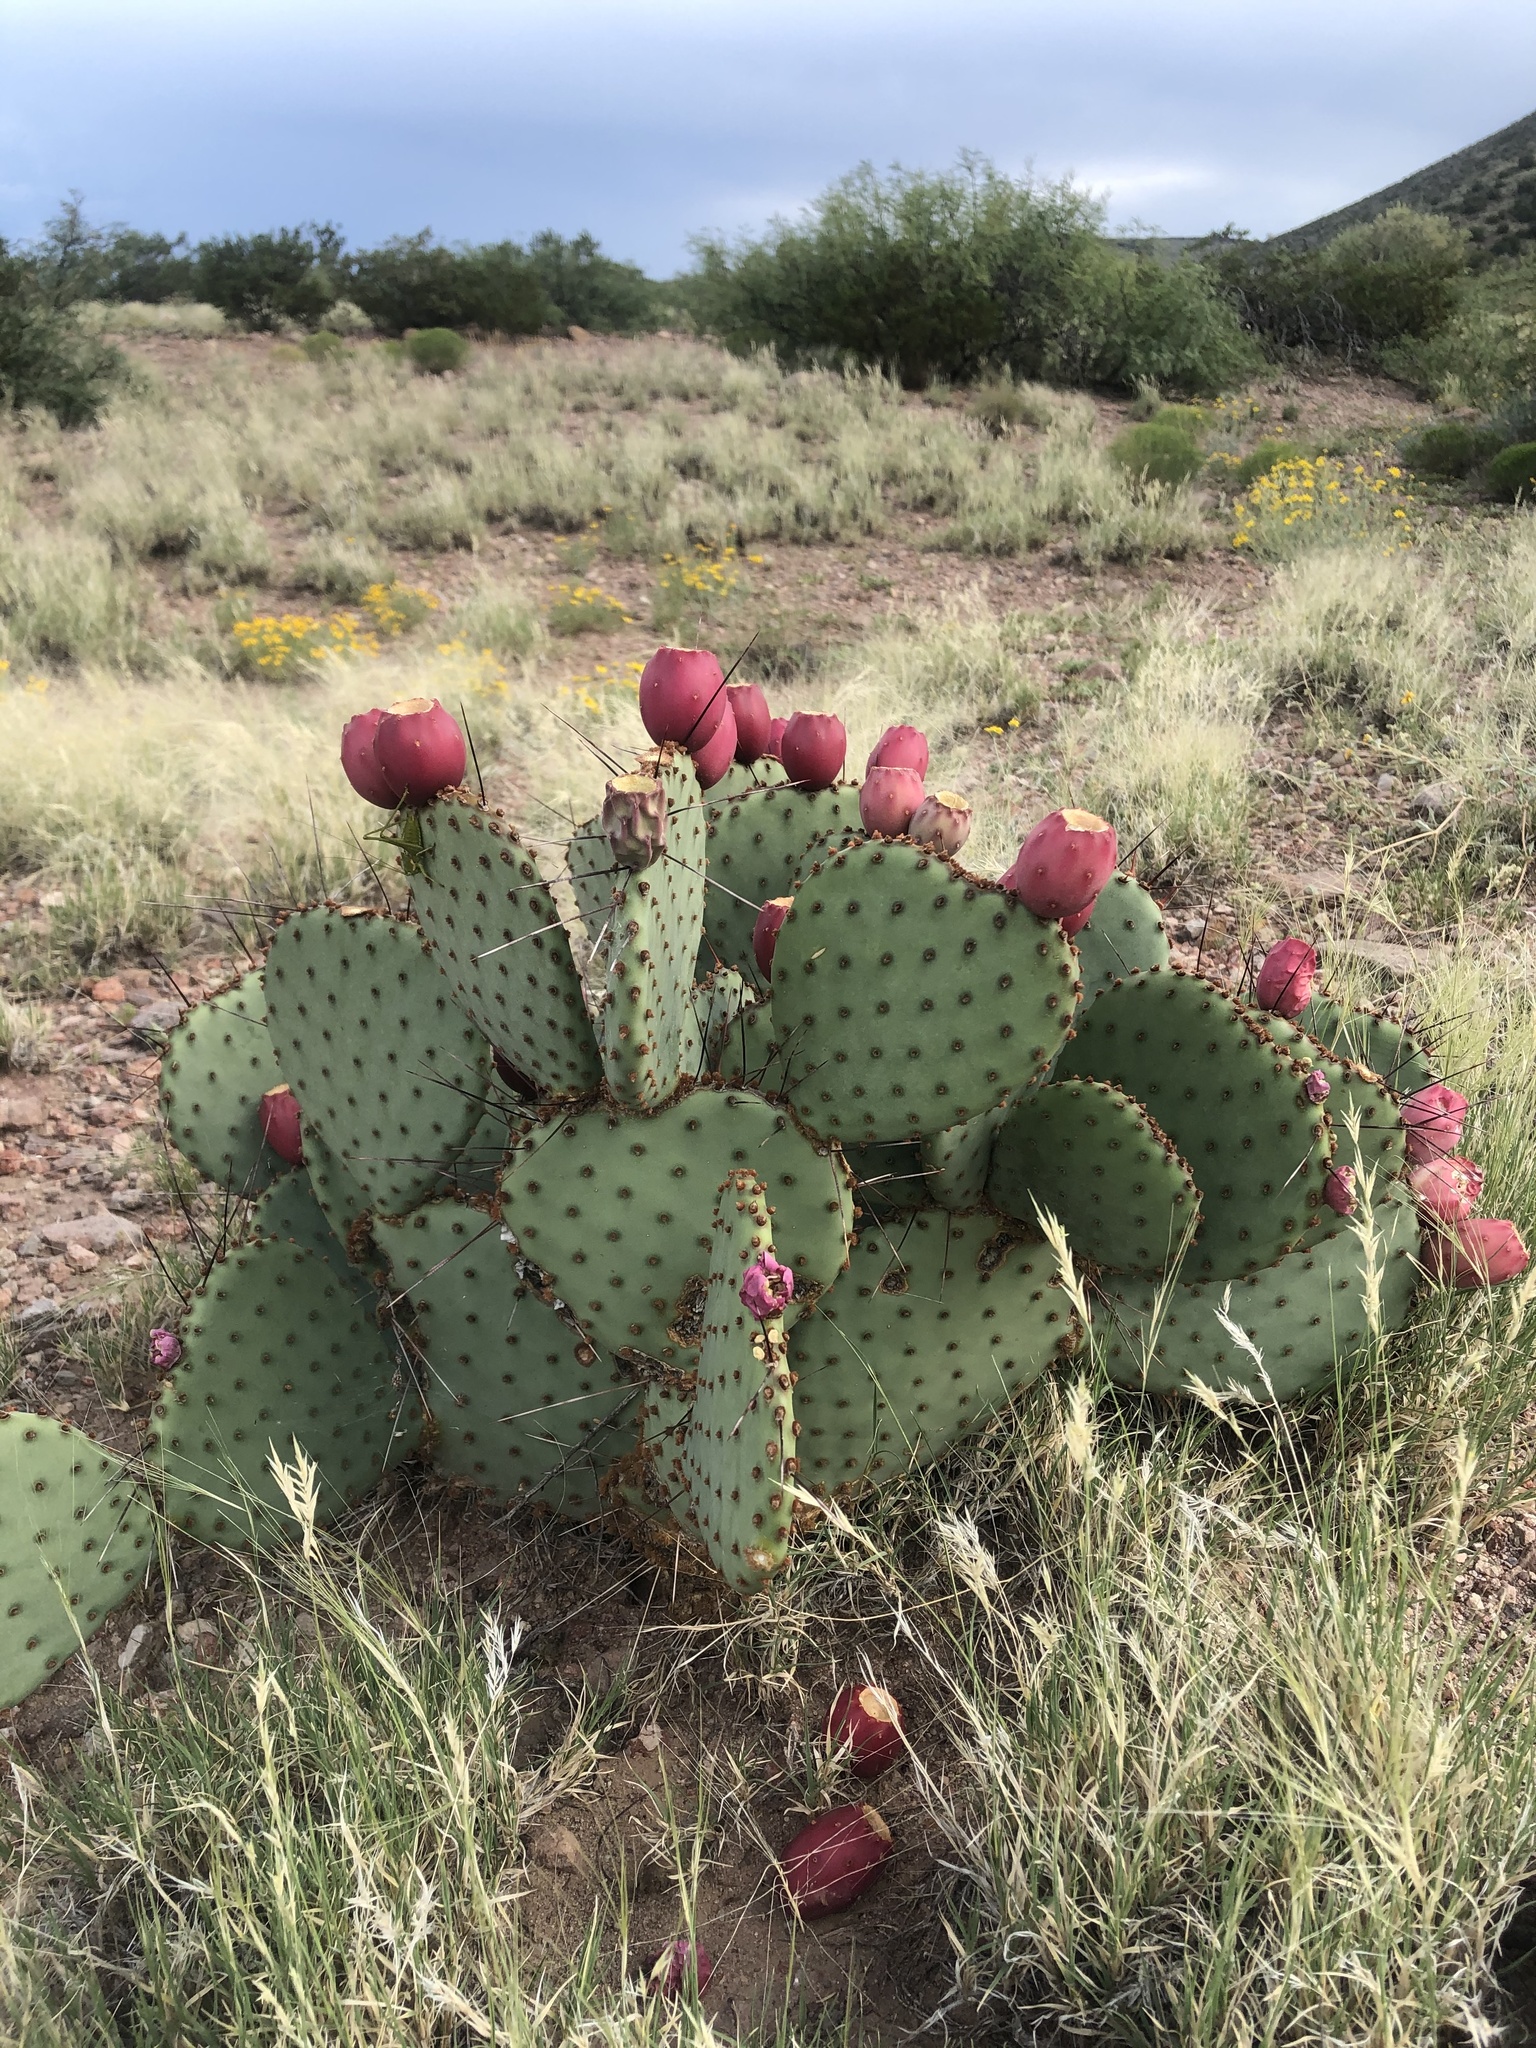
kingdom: Plantae
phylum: Tracheophyta
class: Magnoliopsida
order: Caryophyllales
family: Cactaceae
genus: Opuntia
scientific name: Opuntia macrocentra
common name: Purple prickly-pear
